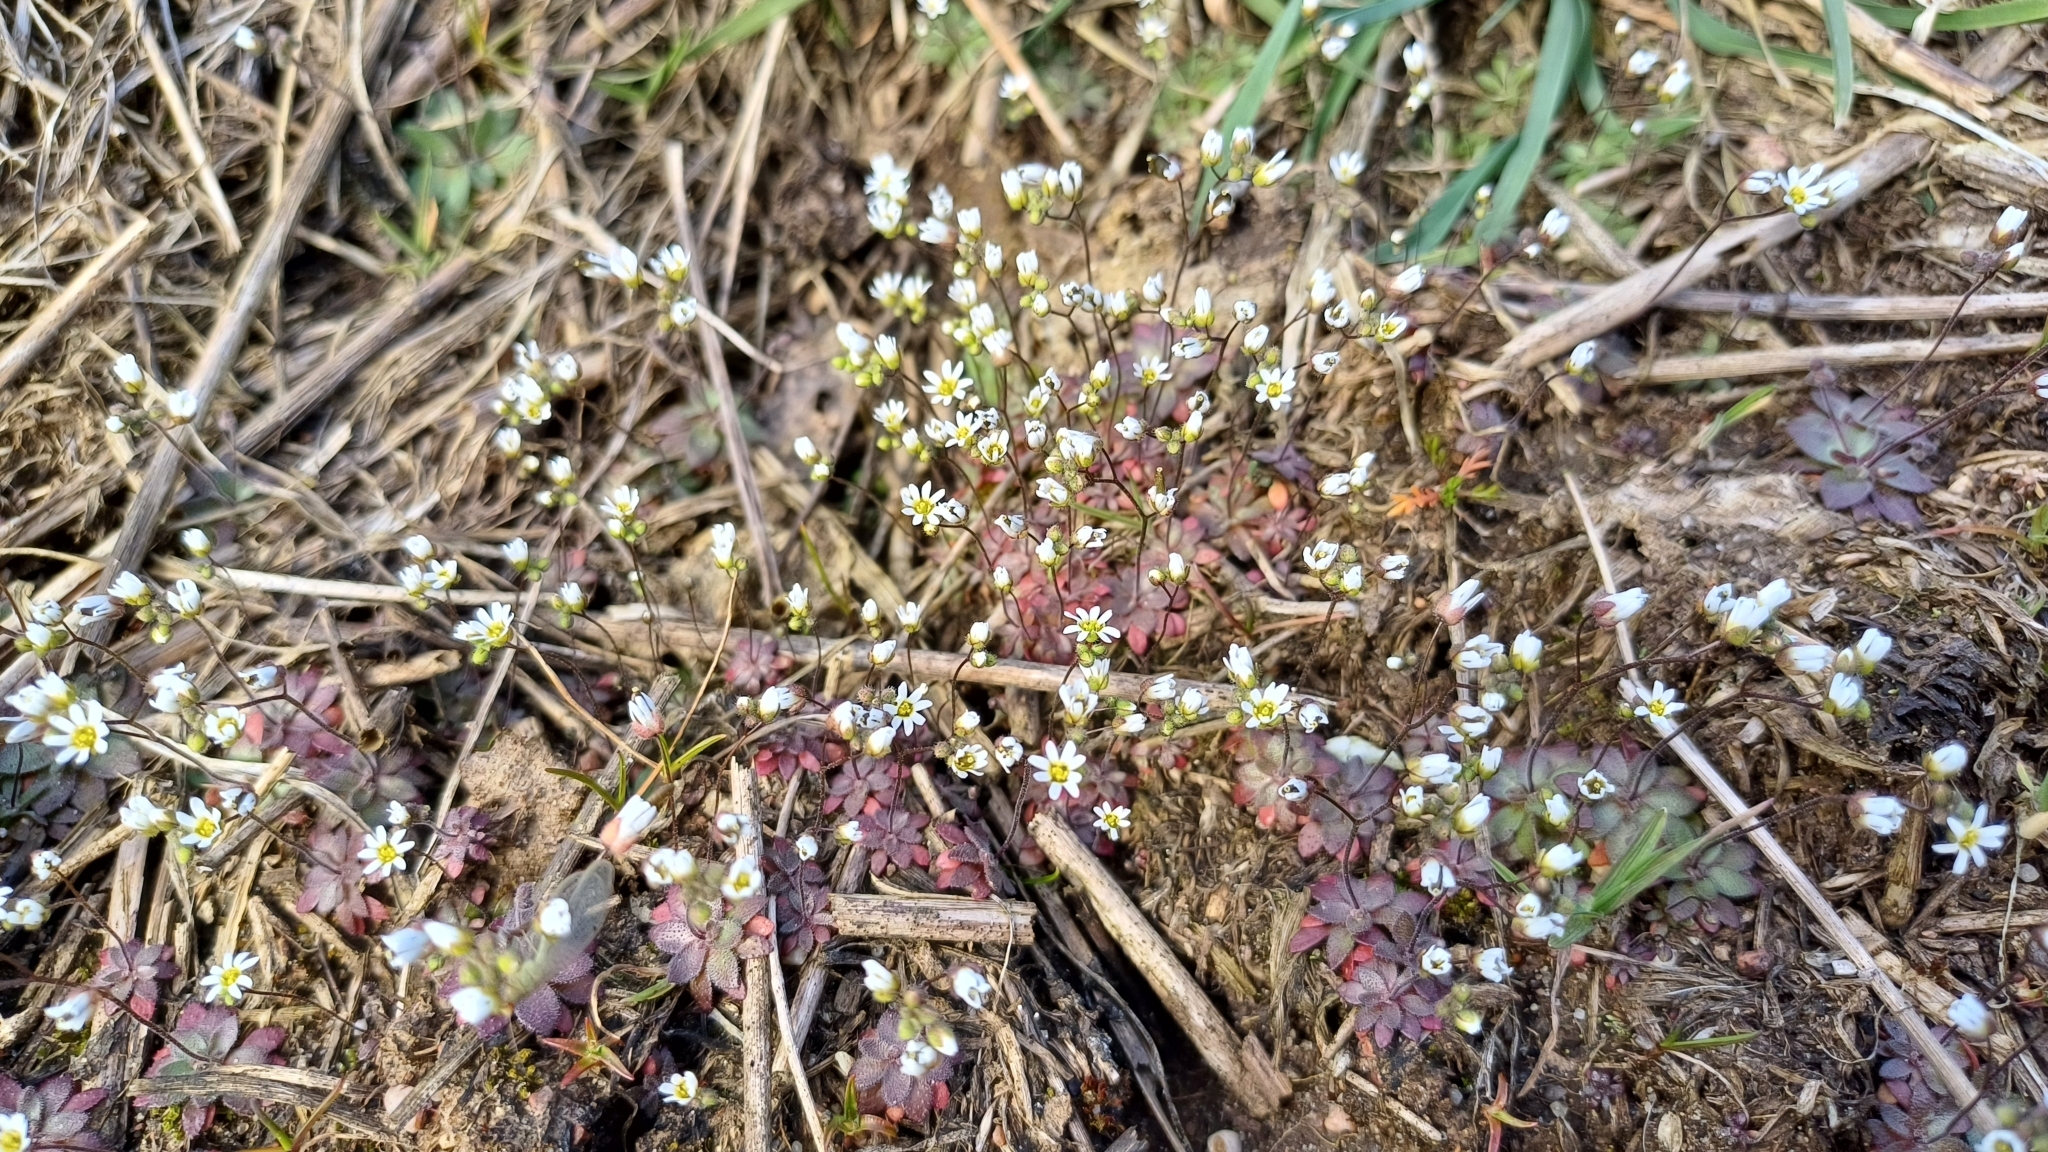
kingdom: Plantae
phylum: Tracheophyta
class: Magnoliopsida
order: Brassicales
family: Brassicaceae
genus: Draba
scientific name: Draba verna
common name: Spring draba
